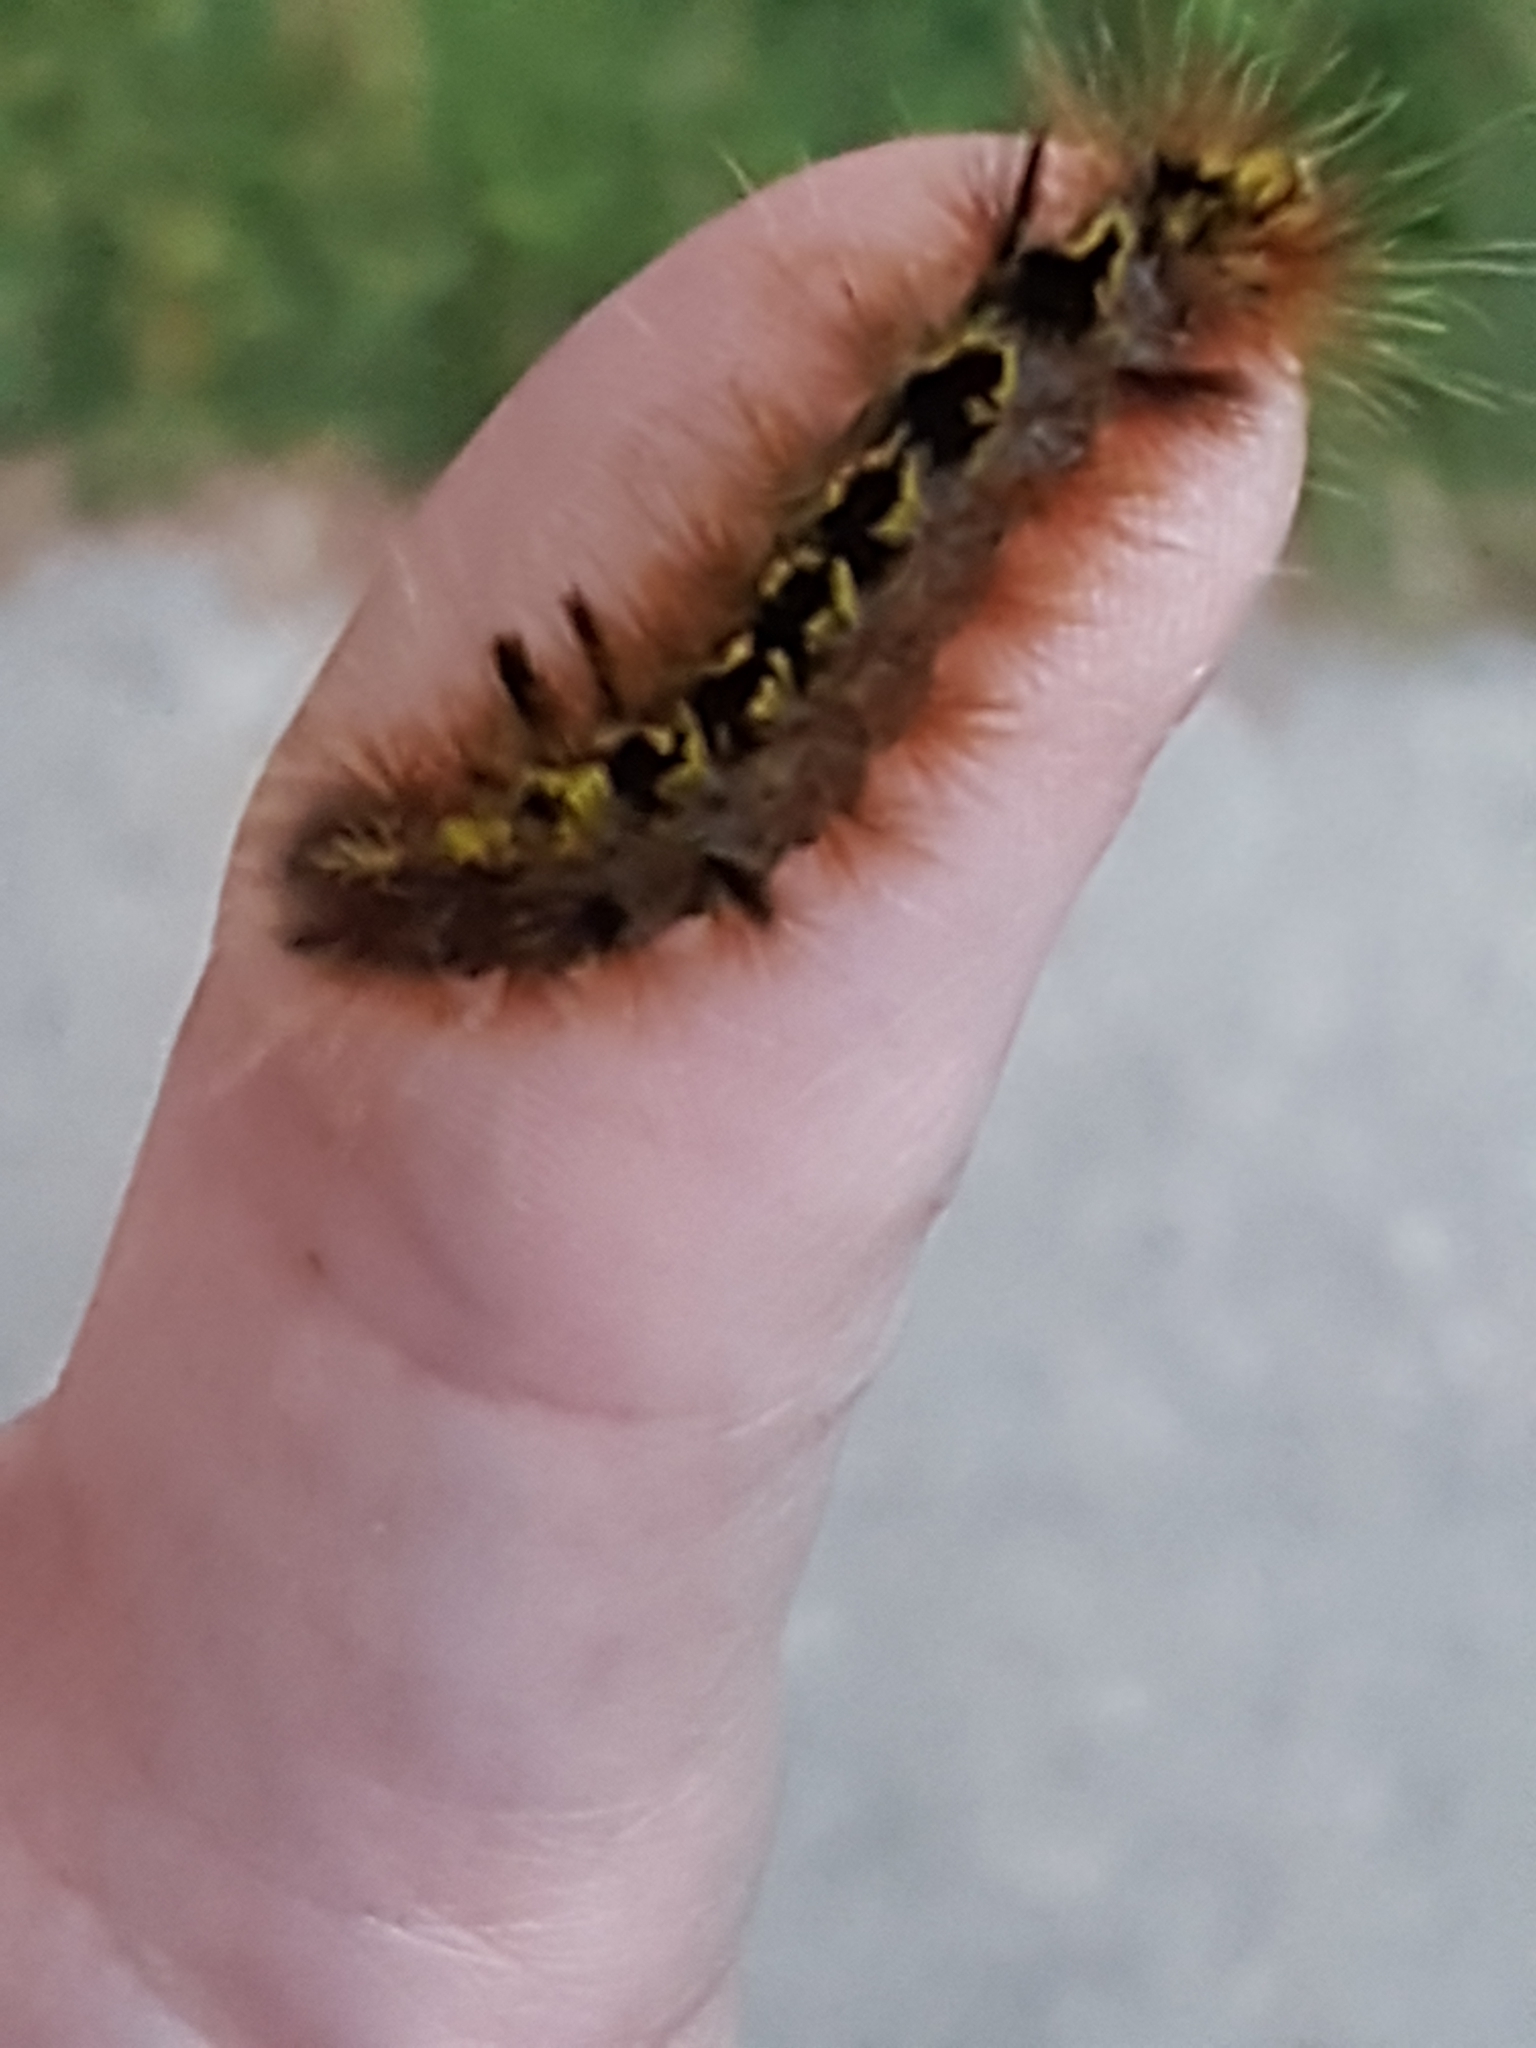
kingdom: Animalia
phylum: Arthropoda
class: Insecta
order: Lepidoptera
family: Erebidae
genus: Lophocampa
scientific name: Lophocampa argentata
